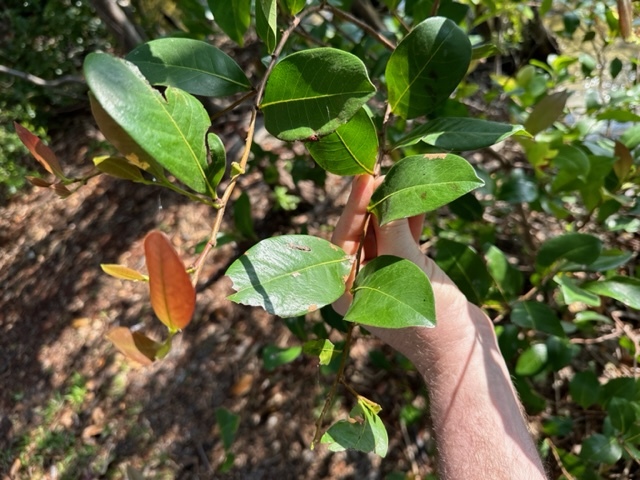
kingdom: Plantae
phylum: Tracheophyta
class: Magnoliopsida
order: Malpighiales
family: Chrysobalanaceae
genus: Chrysobalanus
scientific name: Chrysobalanus icaco
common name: Coco plum
